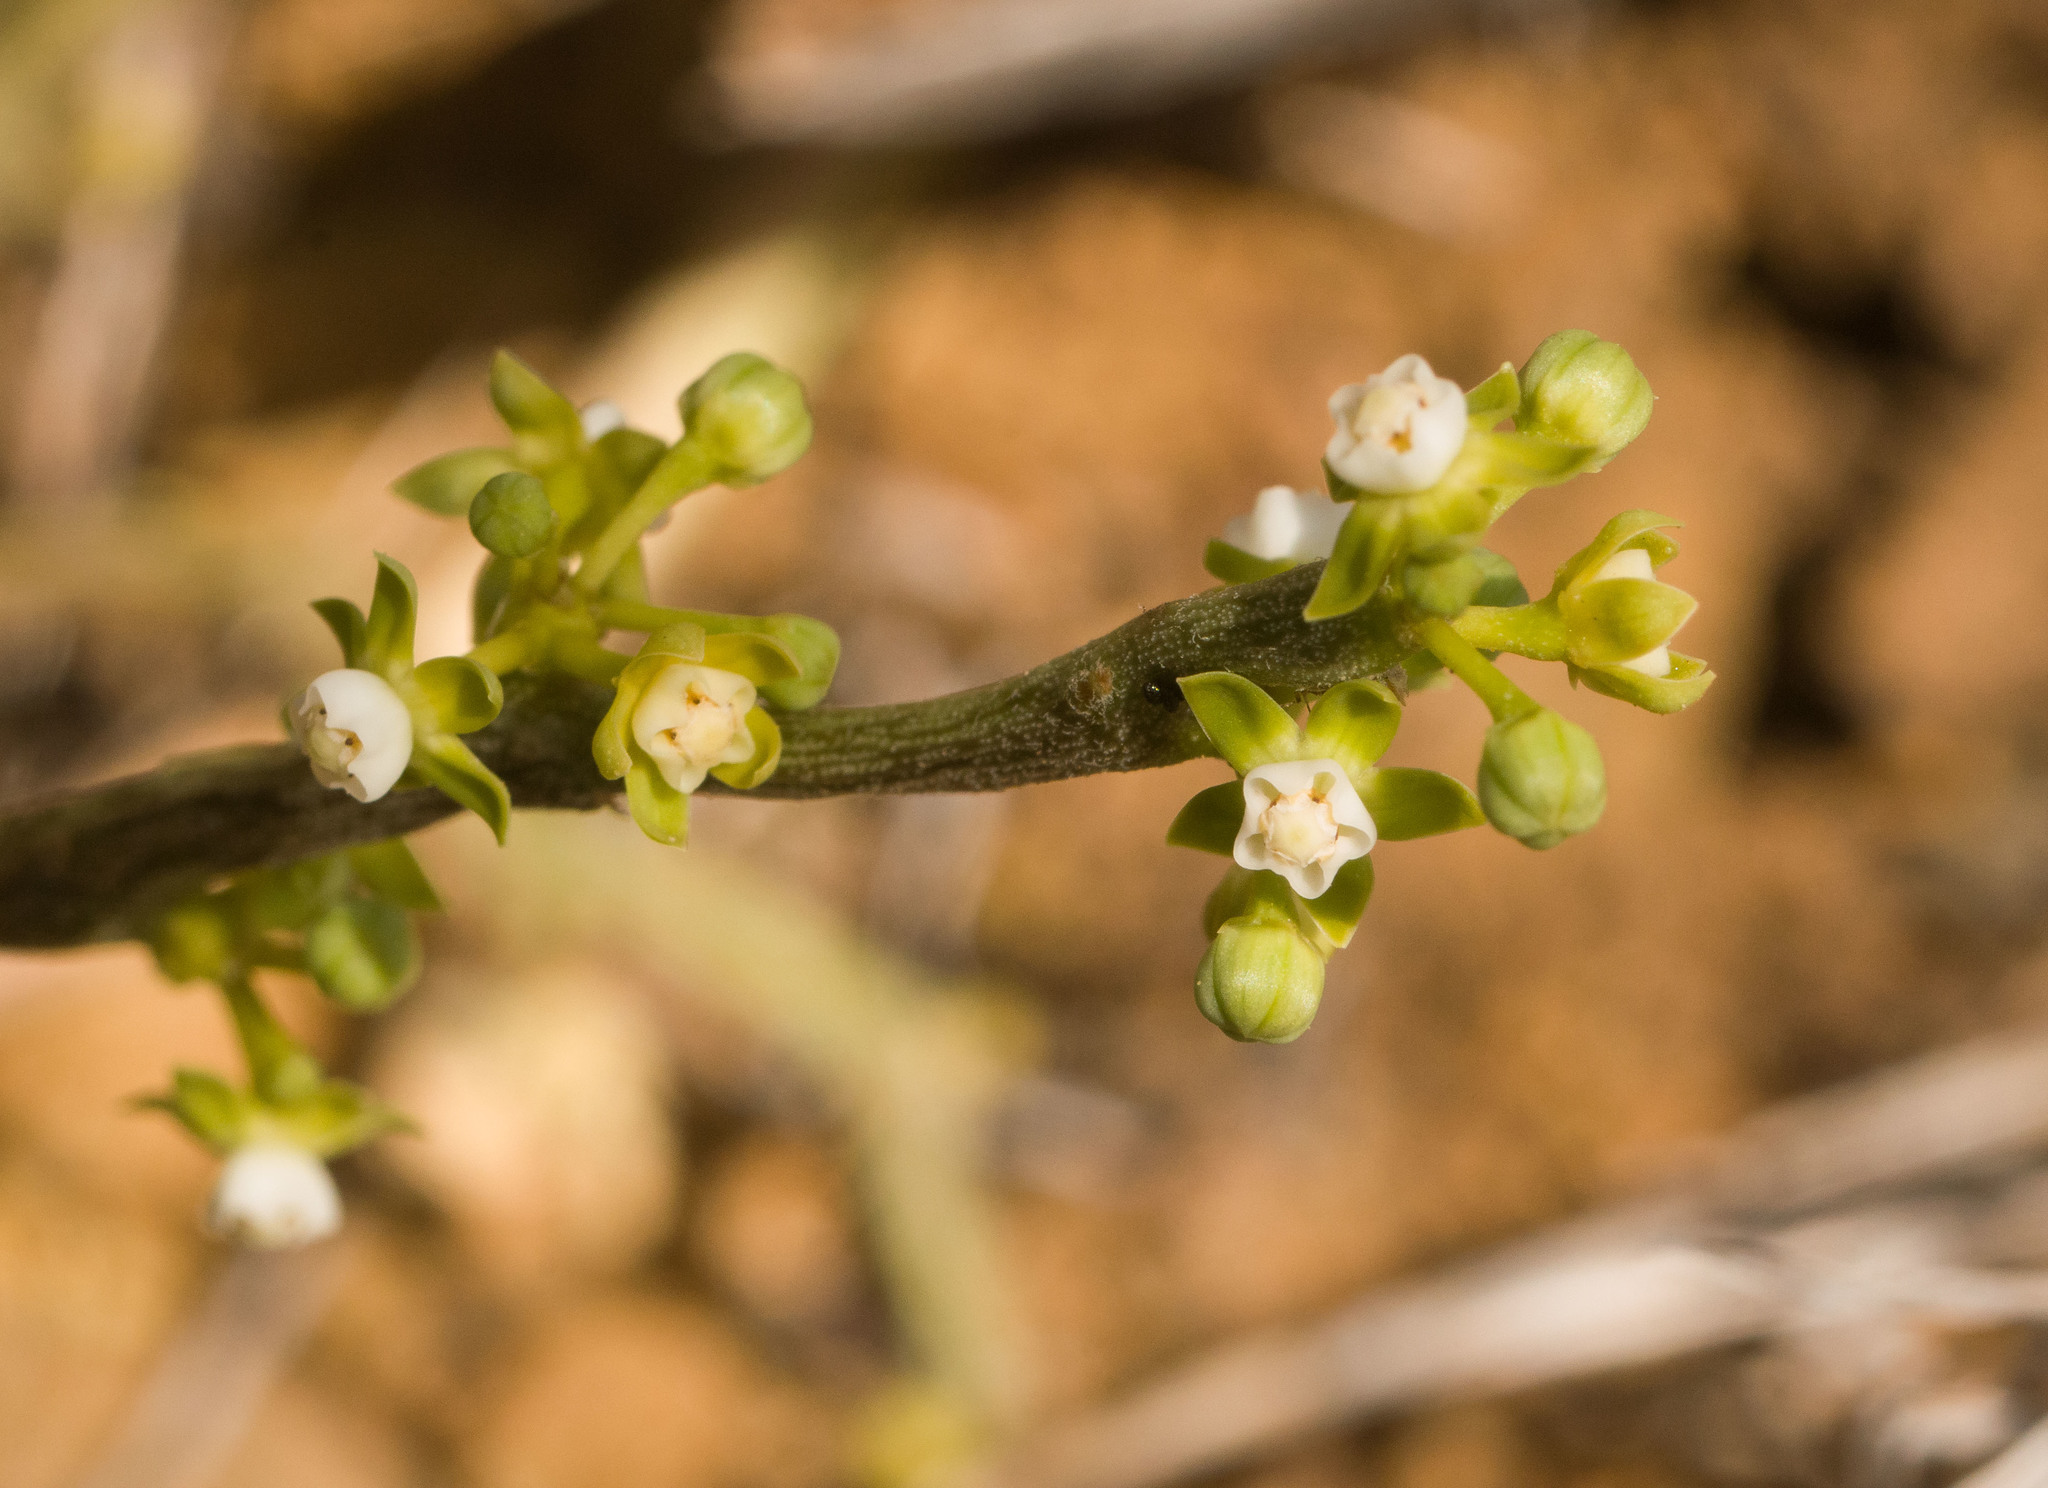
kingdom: Plantae
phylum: Tracheophyta
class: Magnoliopsida
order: Gentianales
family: Apocynaceae
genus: Cynanchum
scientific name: Cynanchum gerrardi
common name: Swallow-wort
